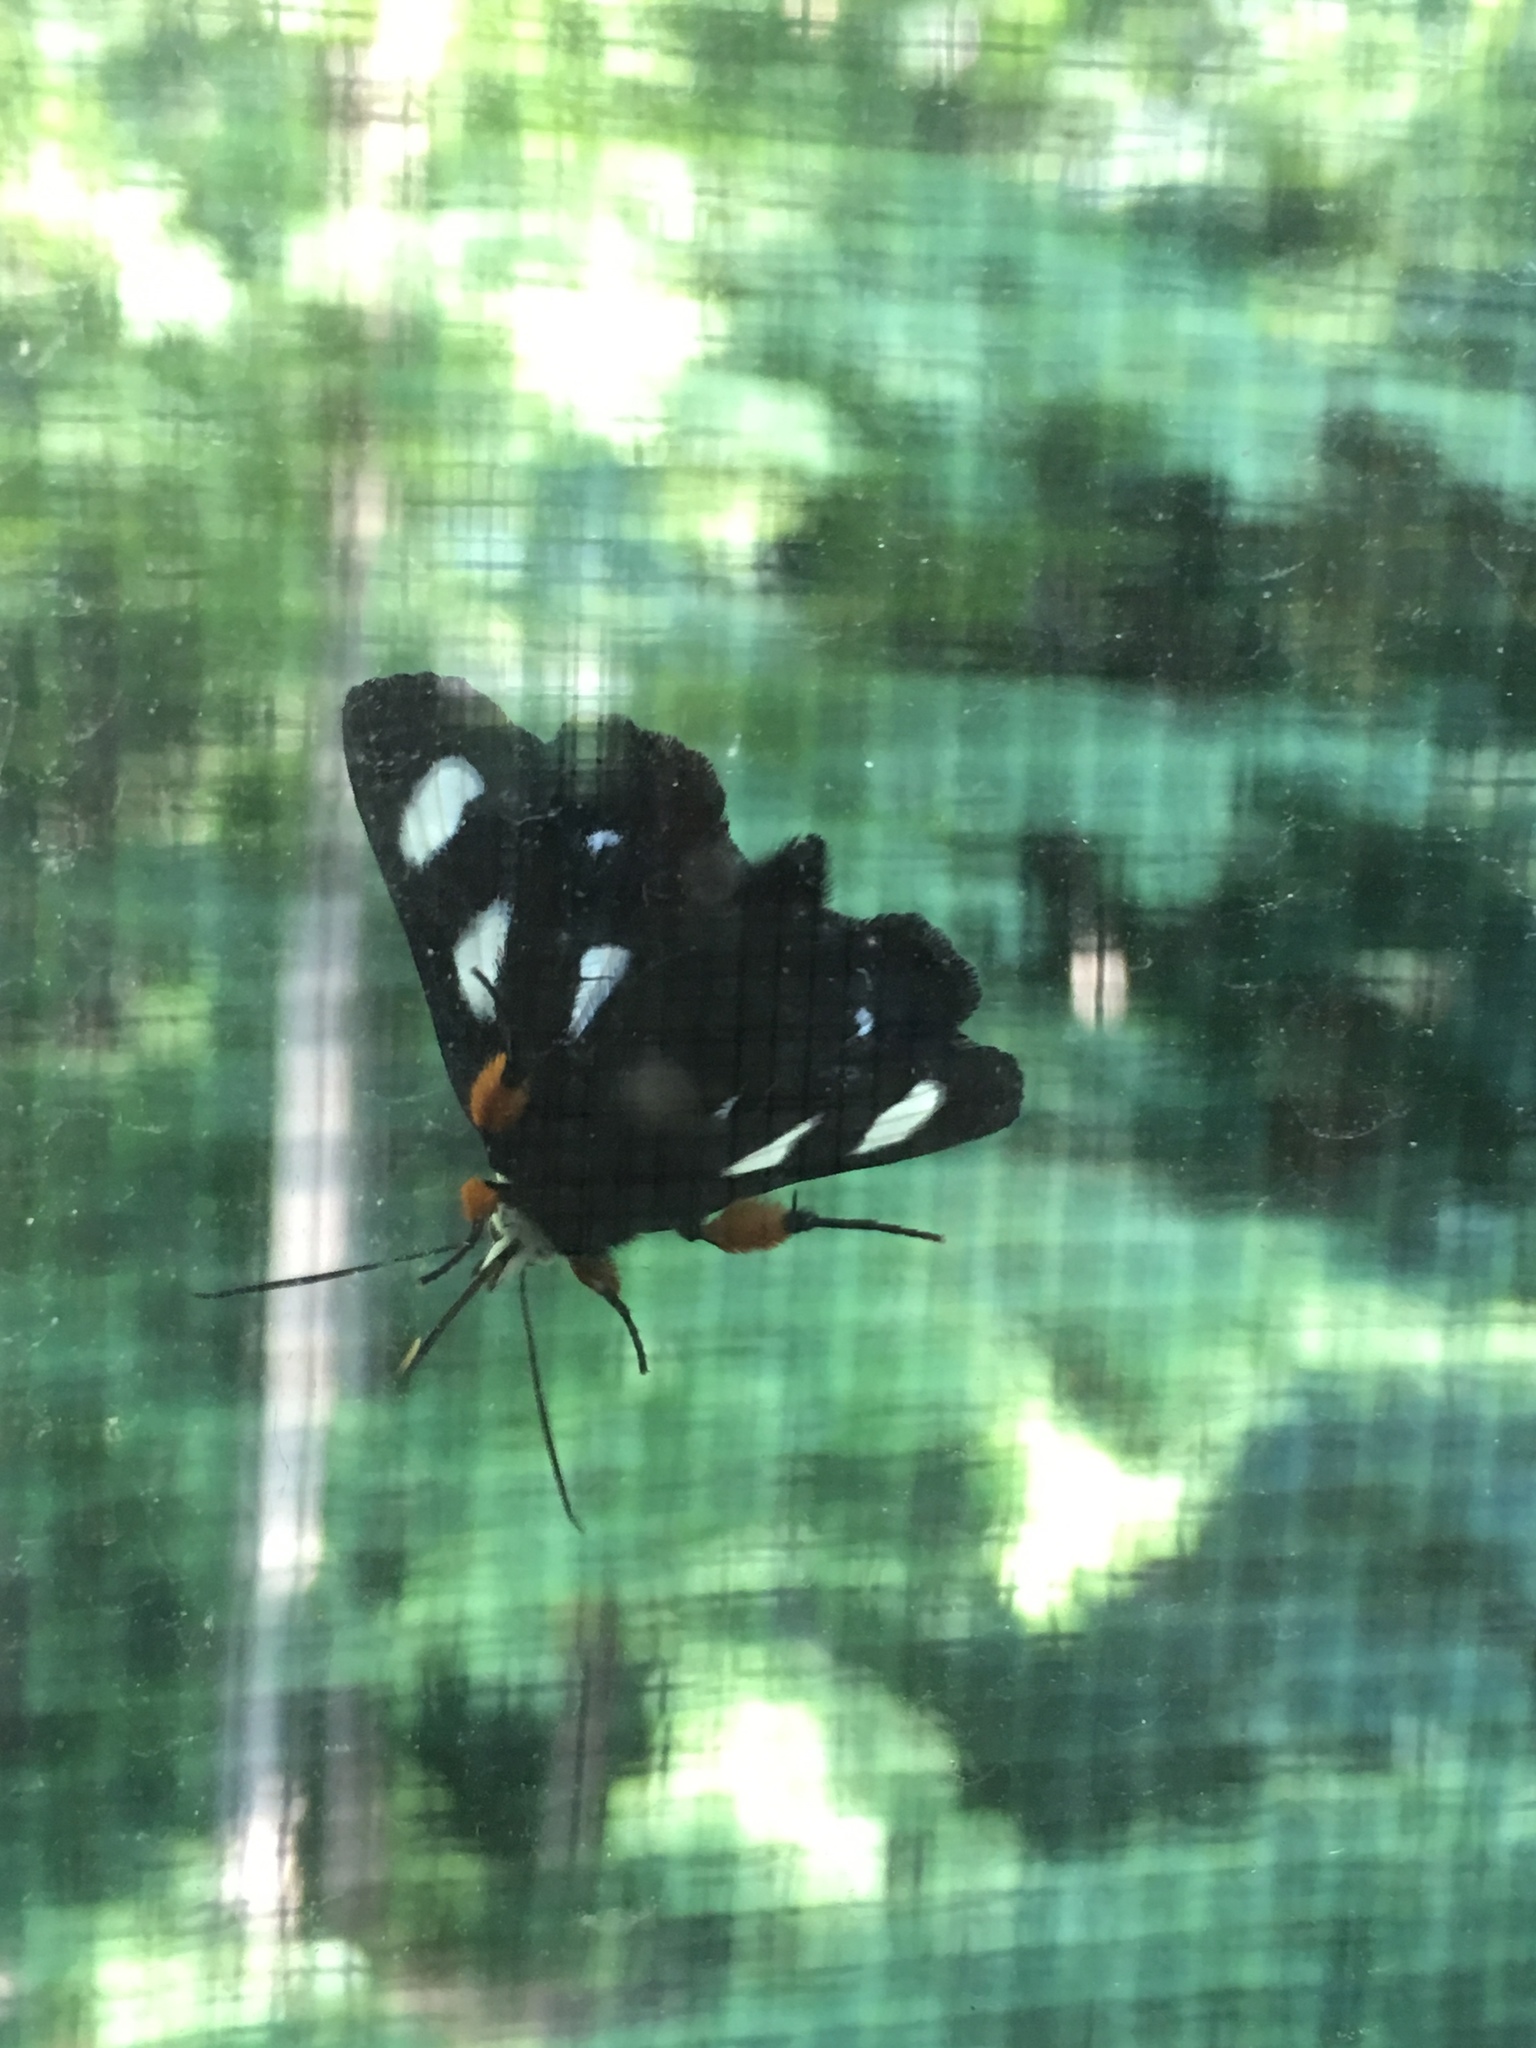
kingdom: Animalia
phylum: Arthropoda
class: Insecta
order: Lepidoptera
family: Noctuidae
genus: Alypia
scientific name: Alypia octomaculata
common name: Eight-spotted forester
